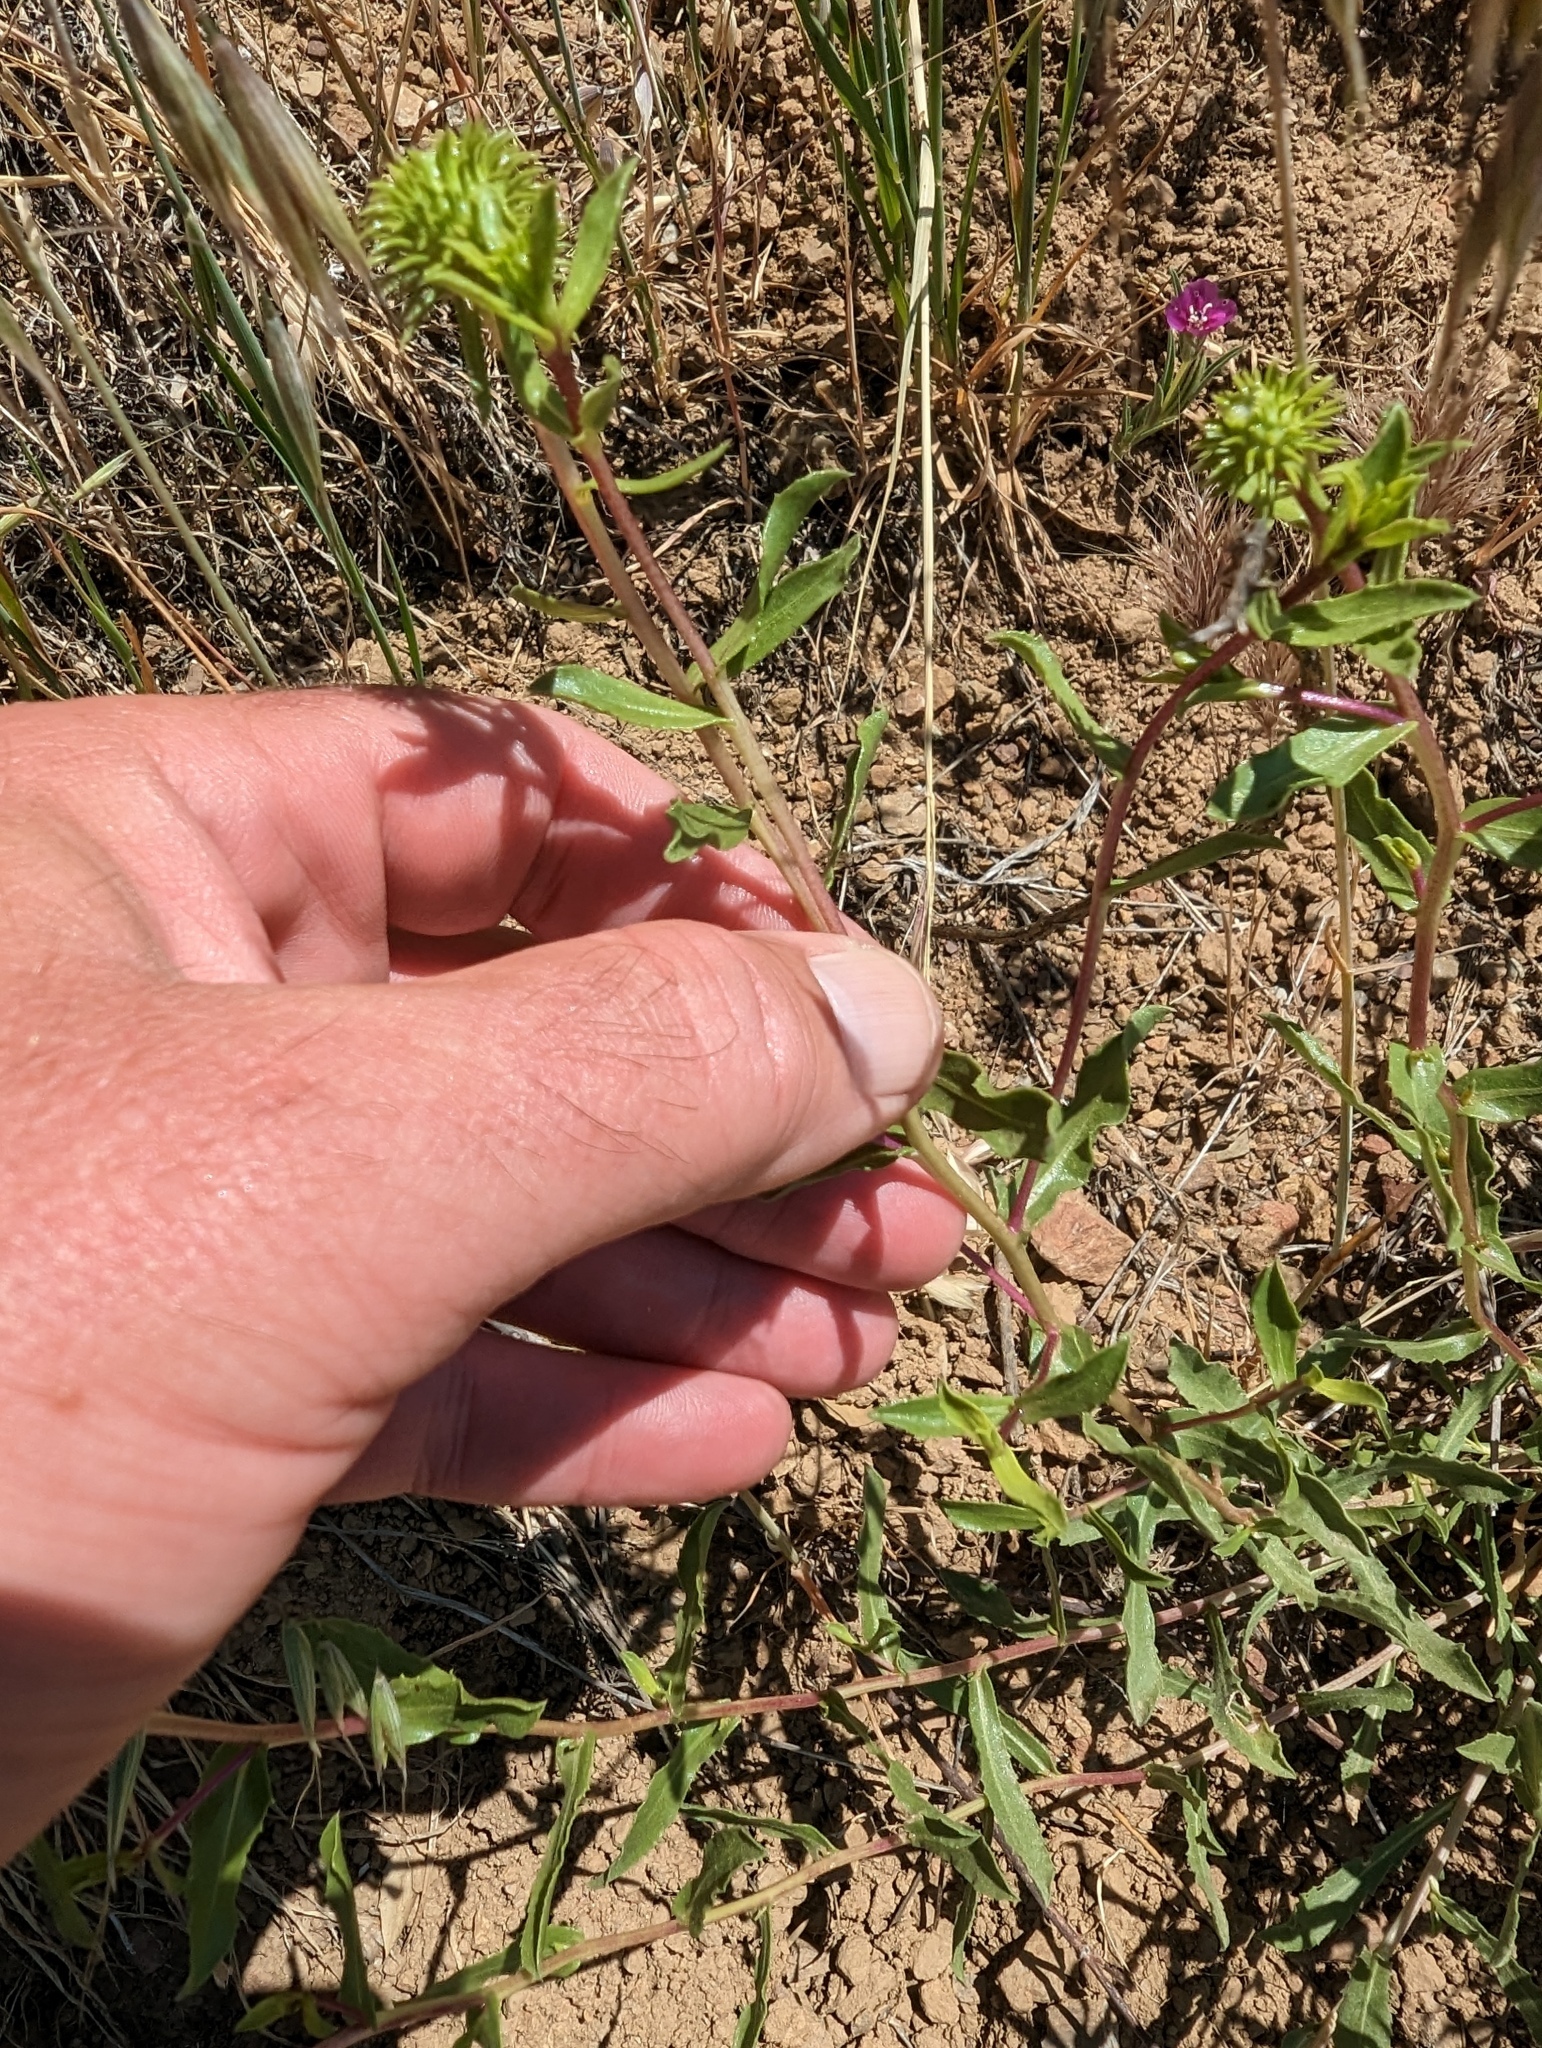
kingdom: Plantae
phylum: Tracheophyta
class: Magnoliopsida
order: Asterales
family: Asteraceae
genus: Grindelia
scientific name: Grindelia hirsutula
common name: Hairy gumweed
